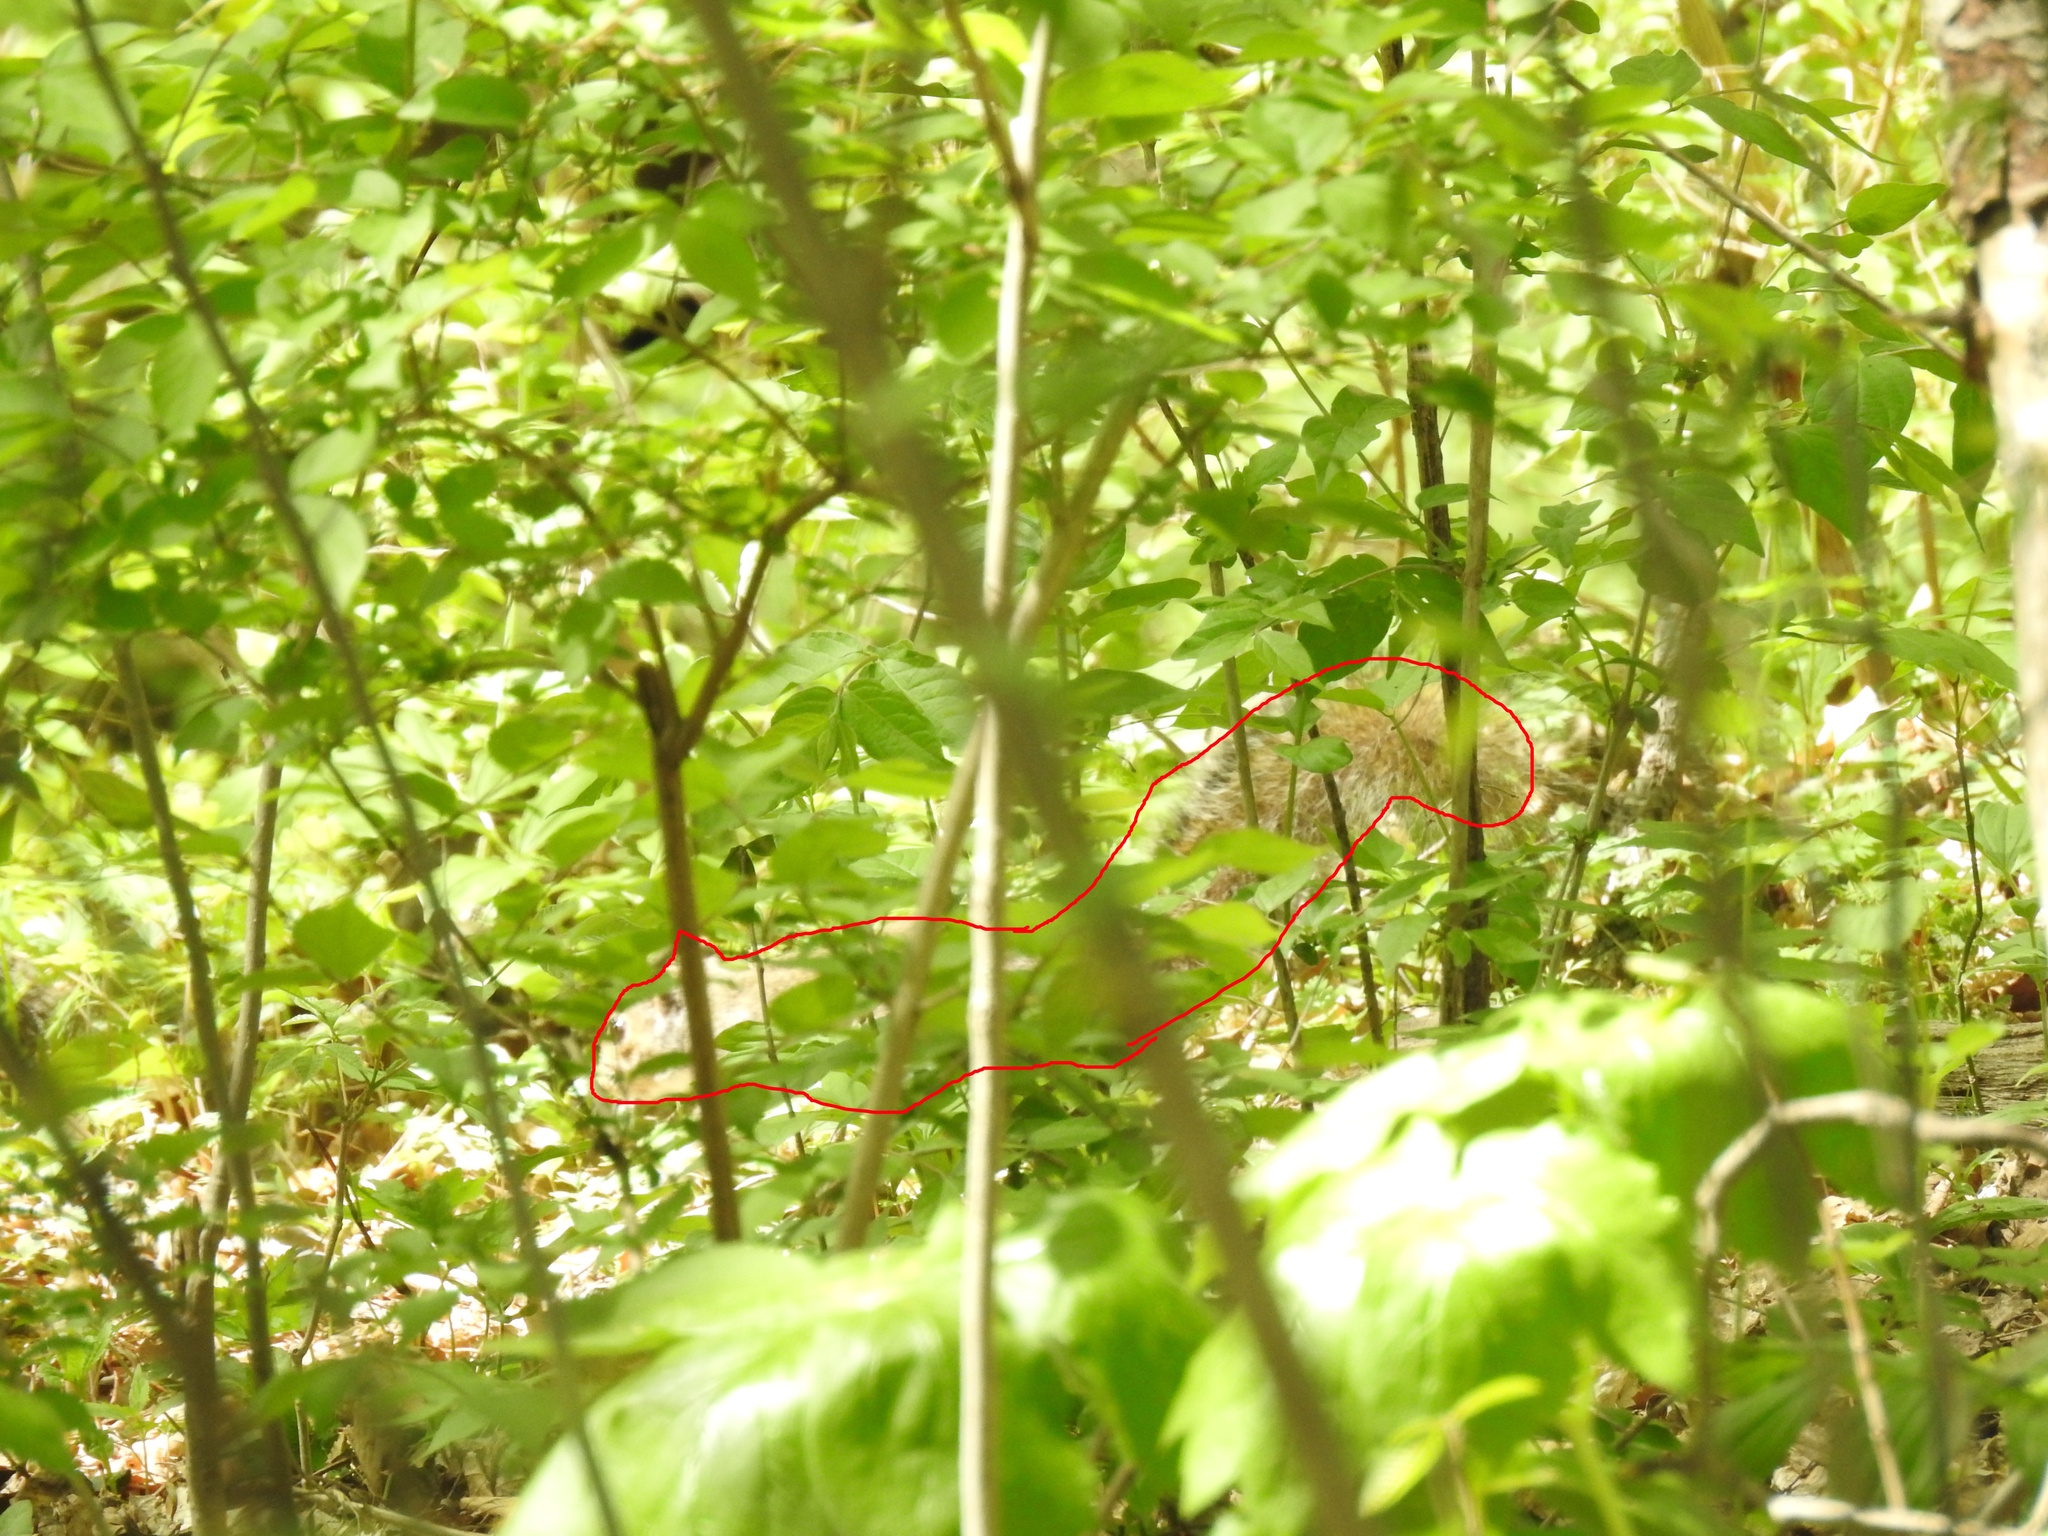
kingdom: Animalia
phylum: Chordata
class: Mammalia
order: Rodentia
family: Sciuridae
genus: Sciurus
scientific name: Sciurus carolinensis
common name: Eastern gray squirrel
